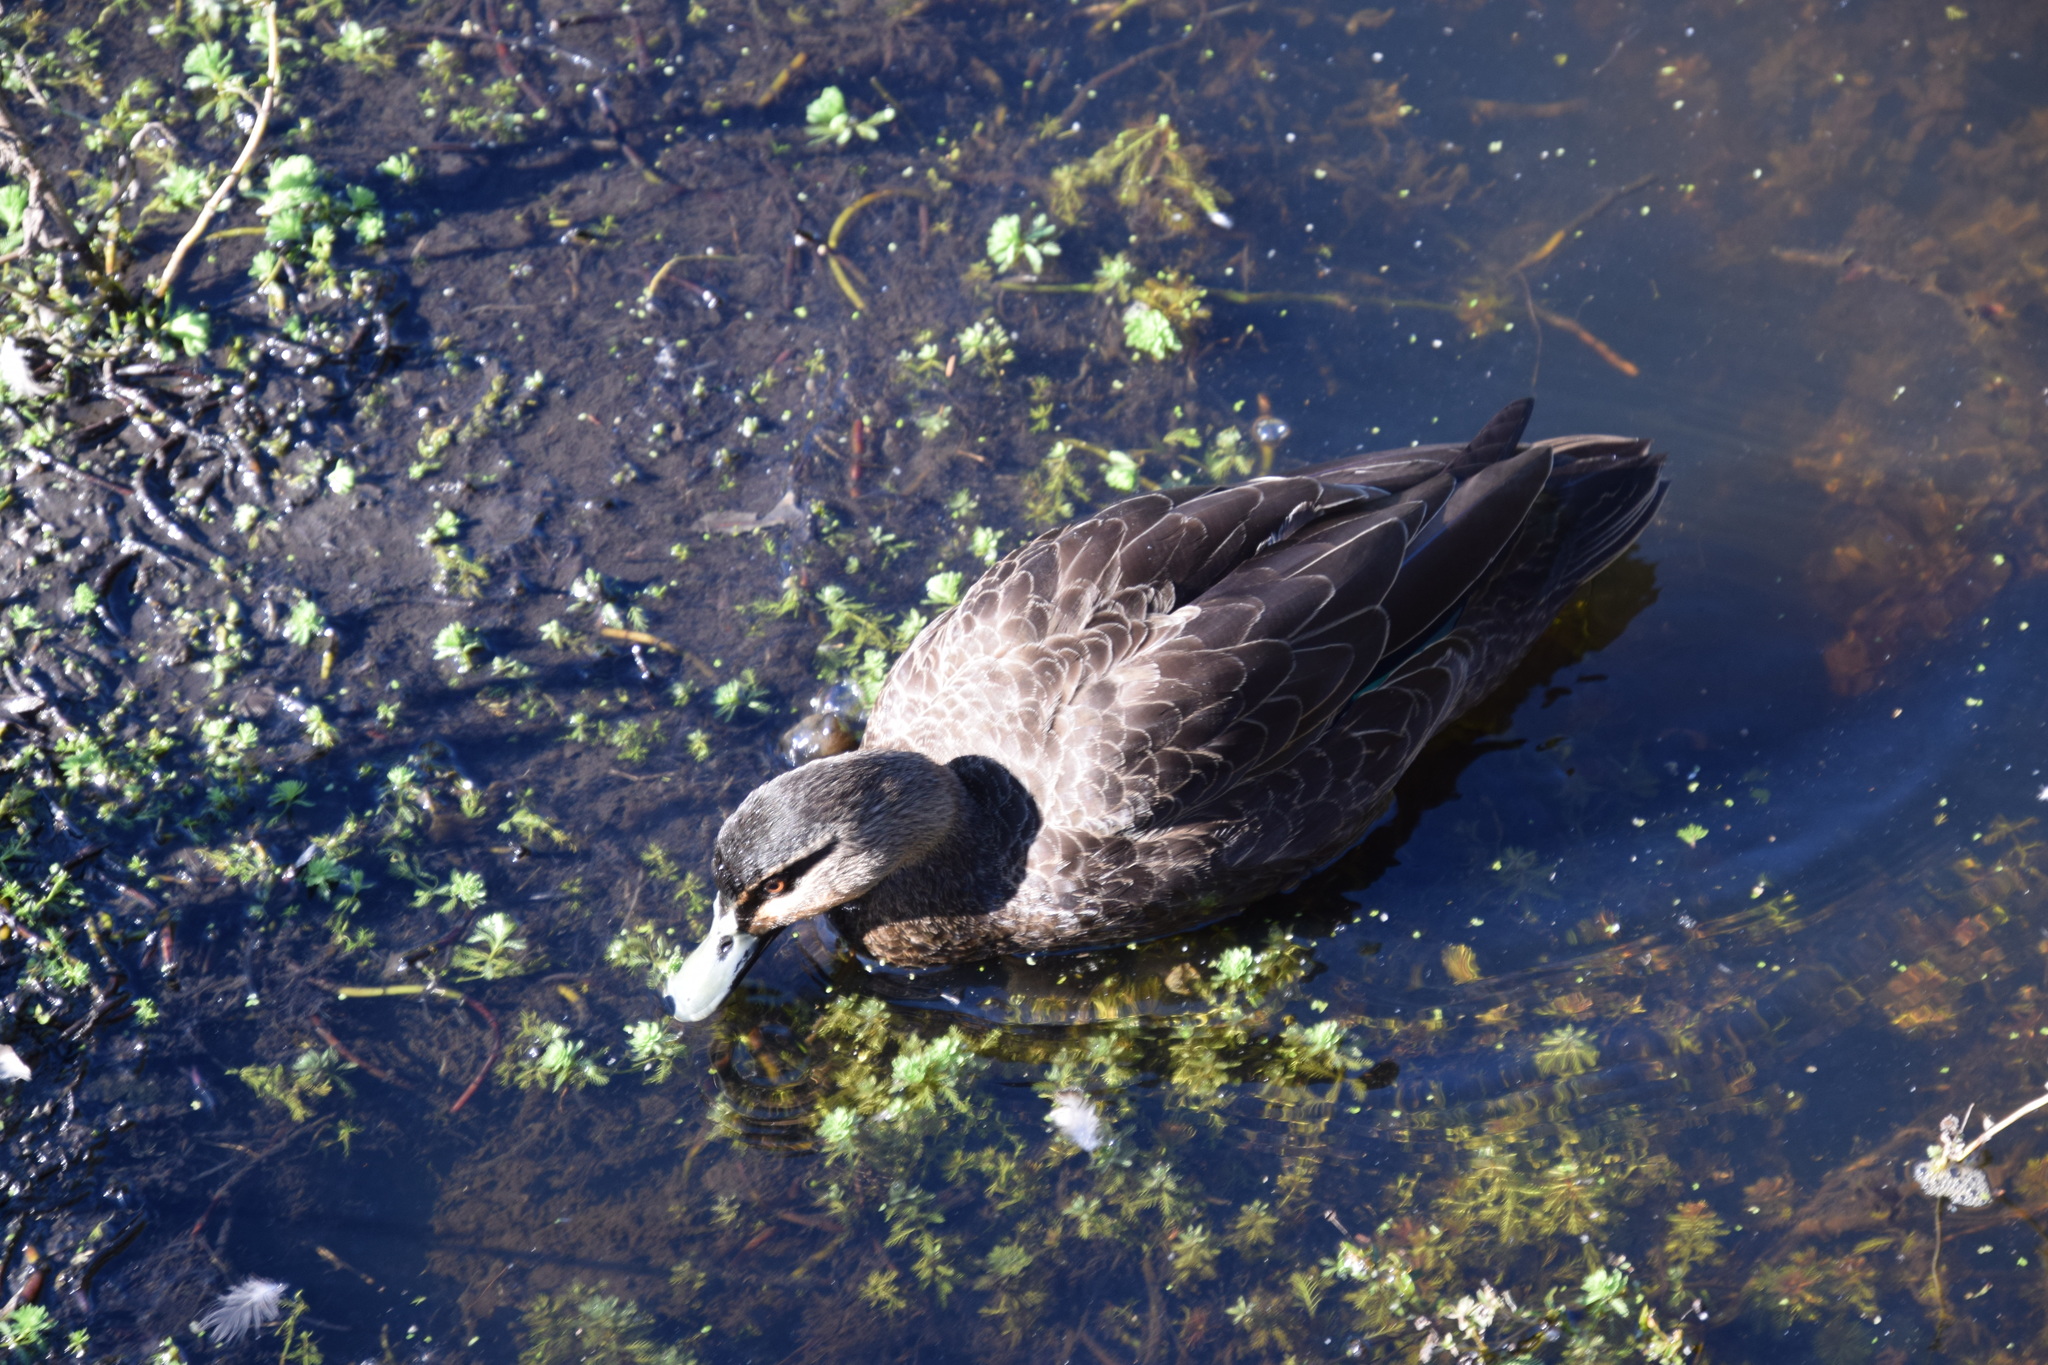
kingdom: Animalia
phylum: Chordata
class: Aves
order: Anseriformes
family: Anatidae
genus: Anas
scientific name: Anas superciliosa
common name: Pacific black duck
